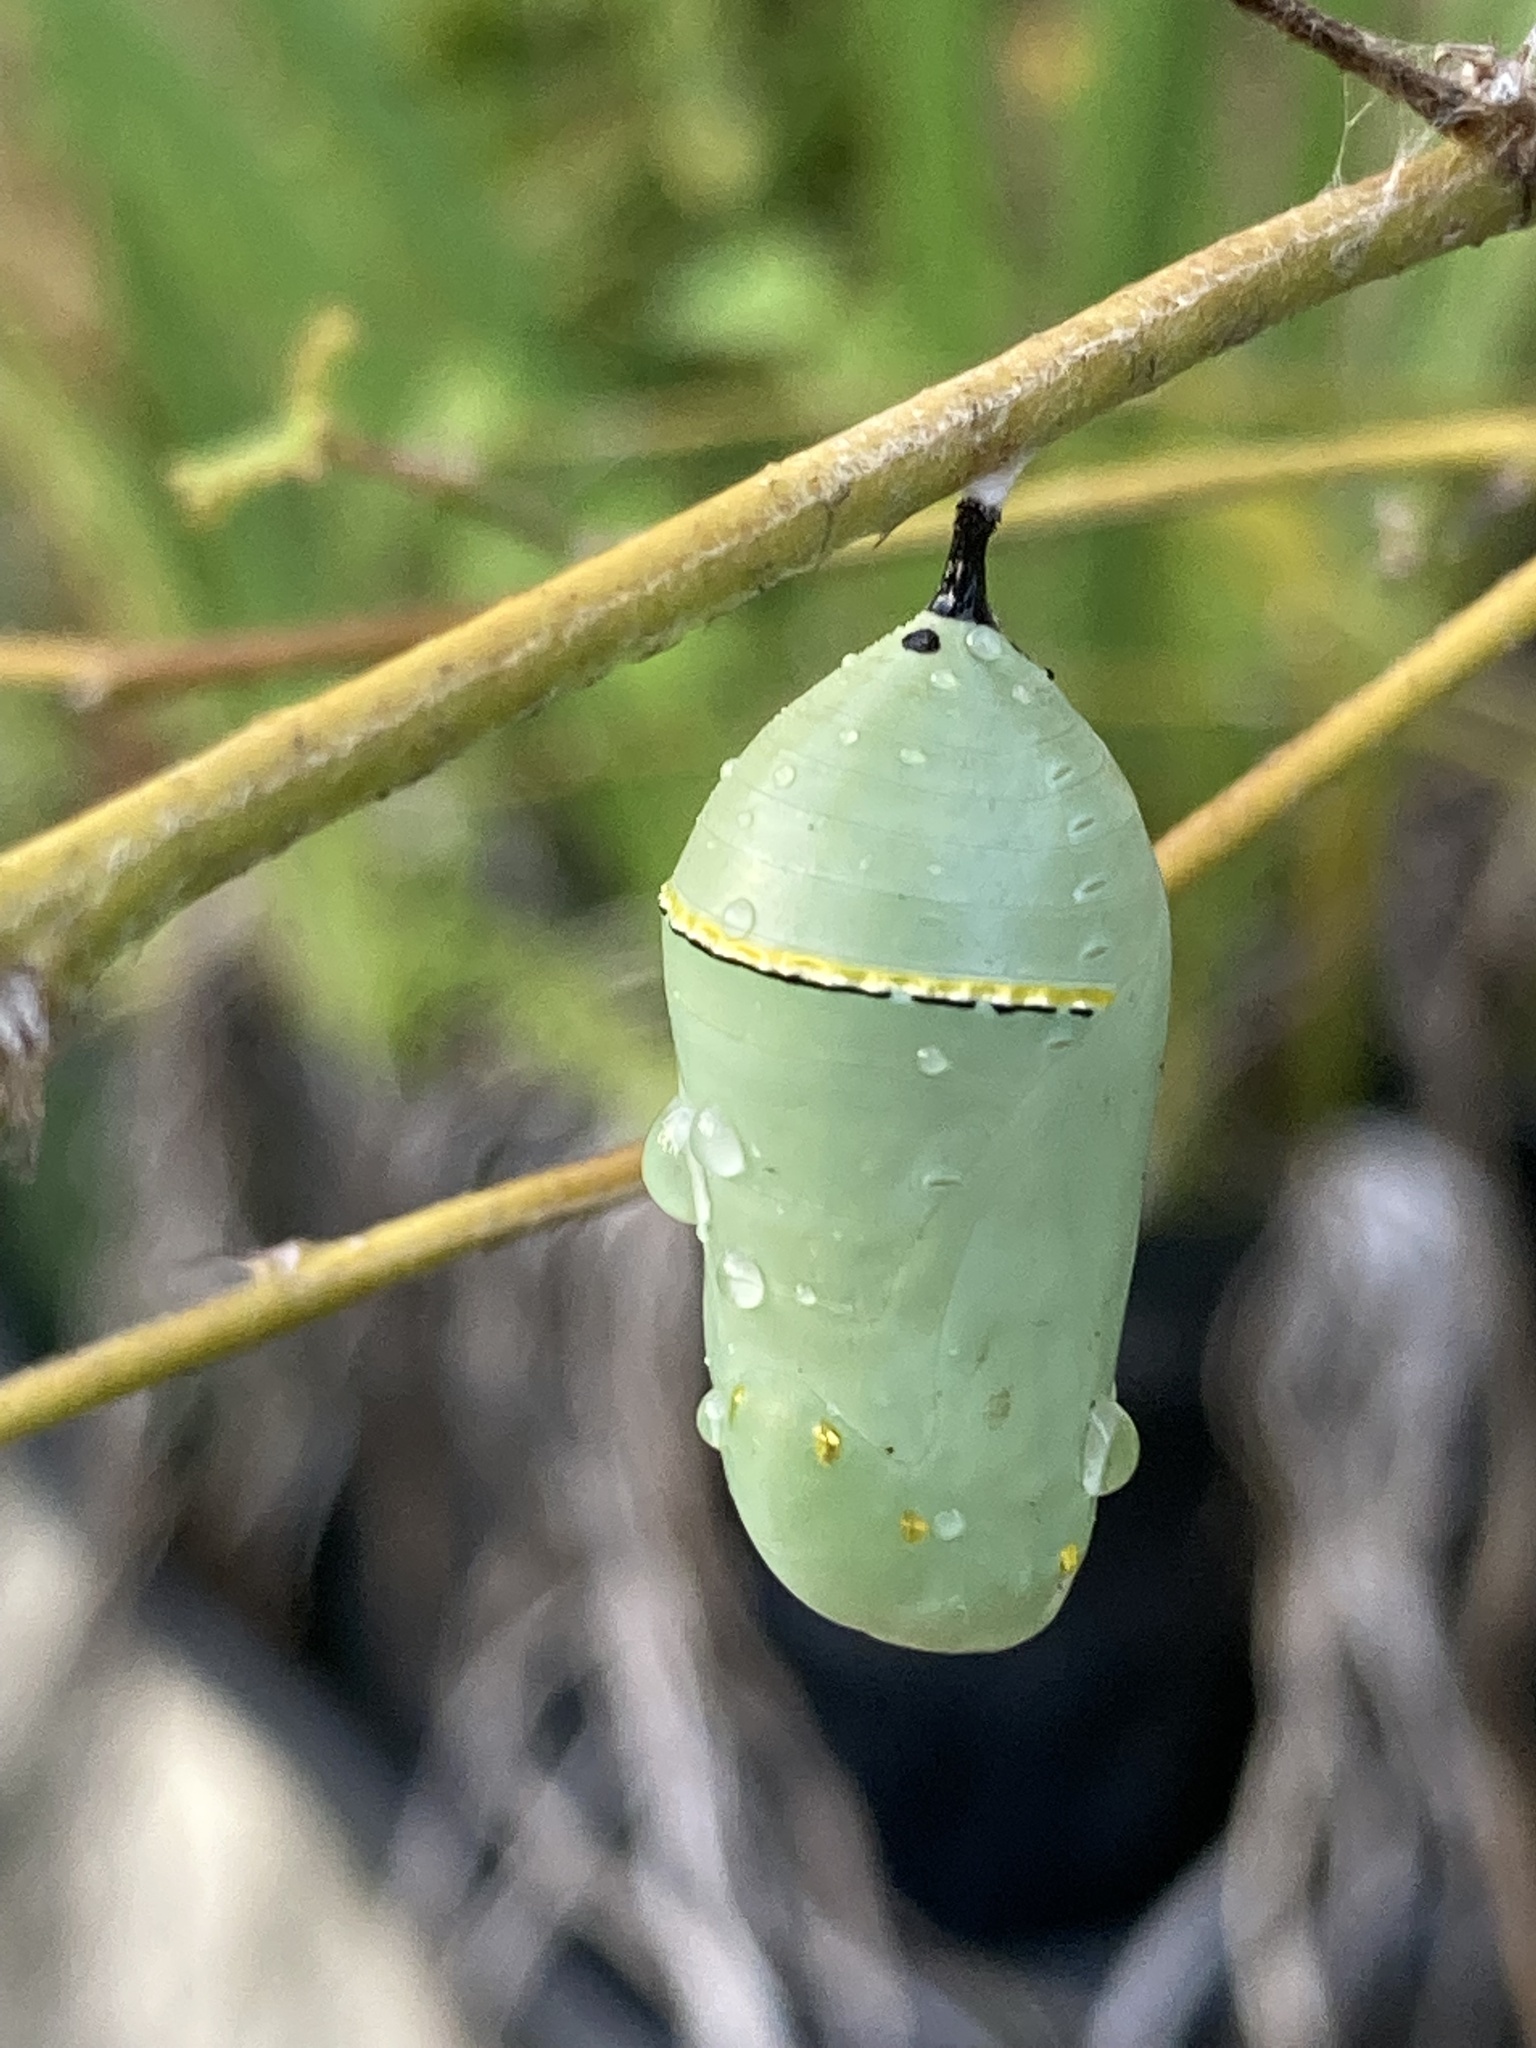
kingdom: Animalia
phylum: Arthropoda
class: Insecta
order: Lepidoptera
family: Nymphalidae
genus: Danaus
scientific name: Danaus plexippus
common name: Monarch
